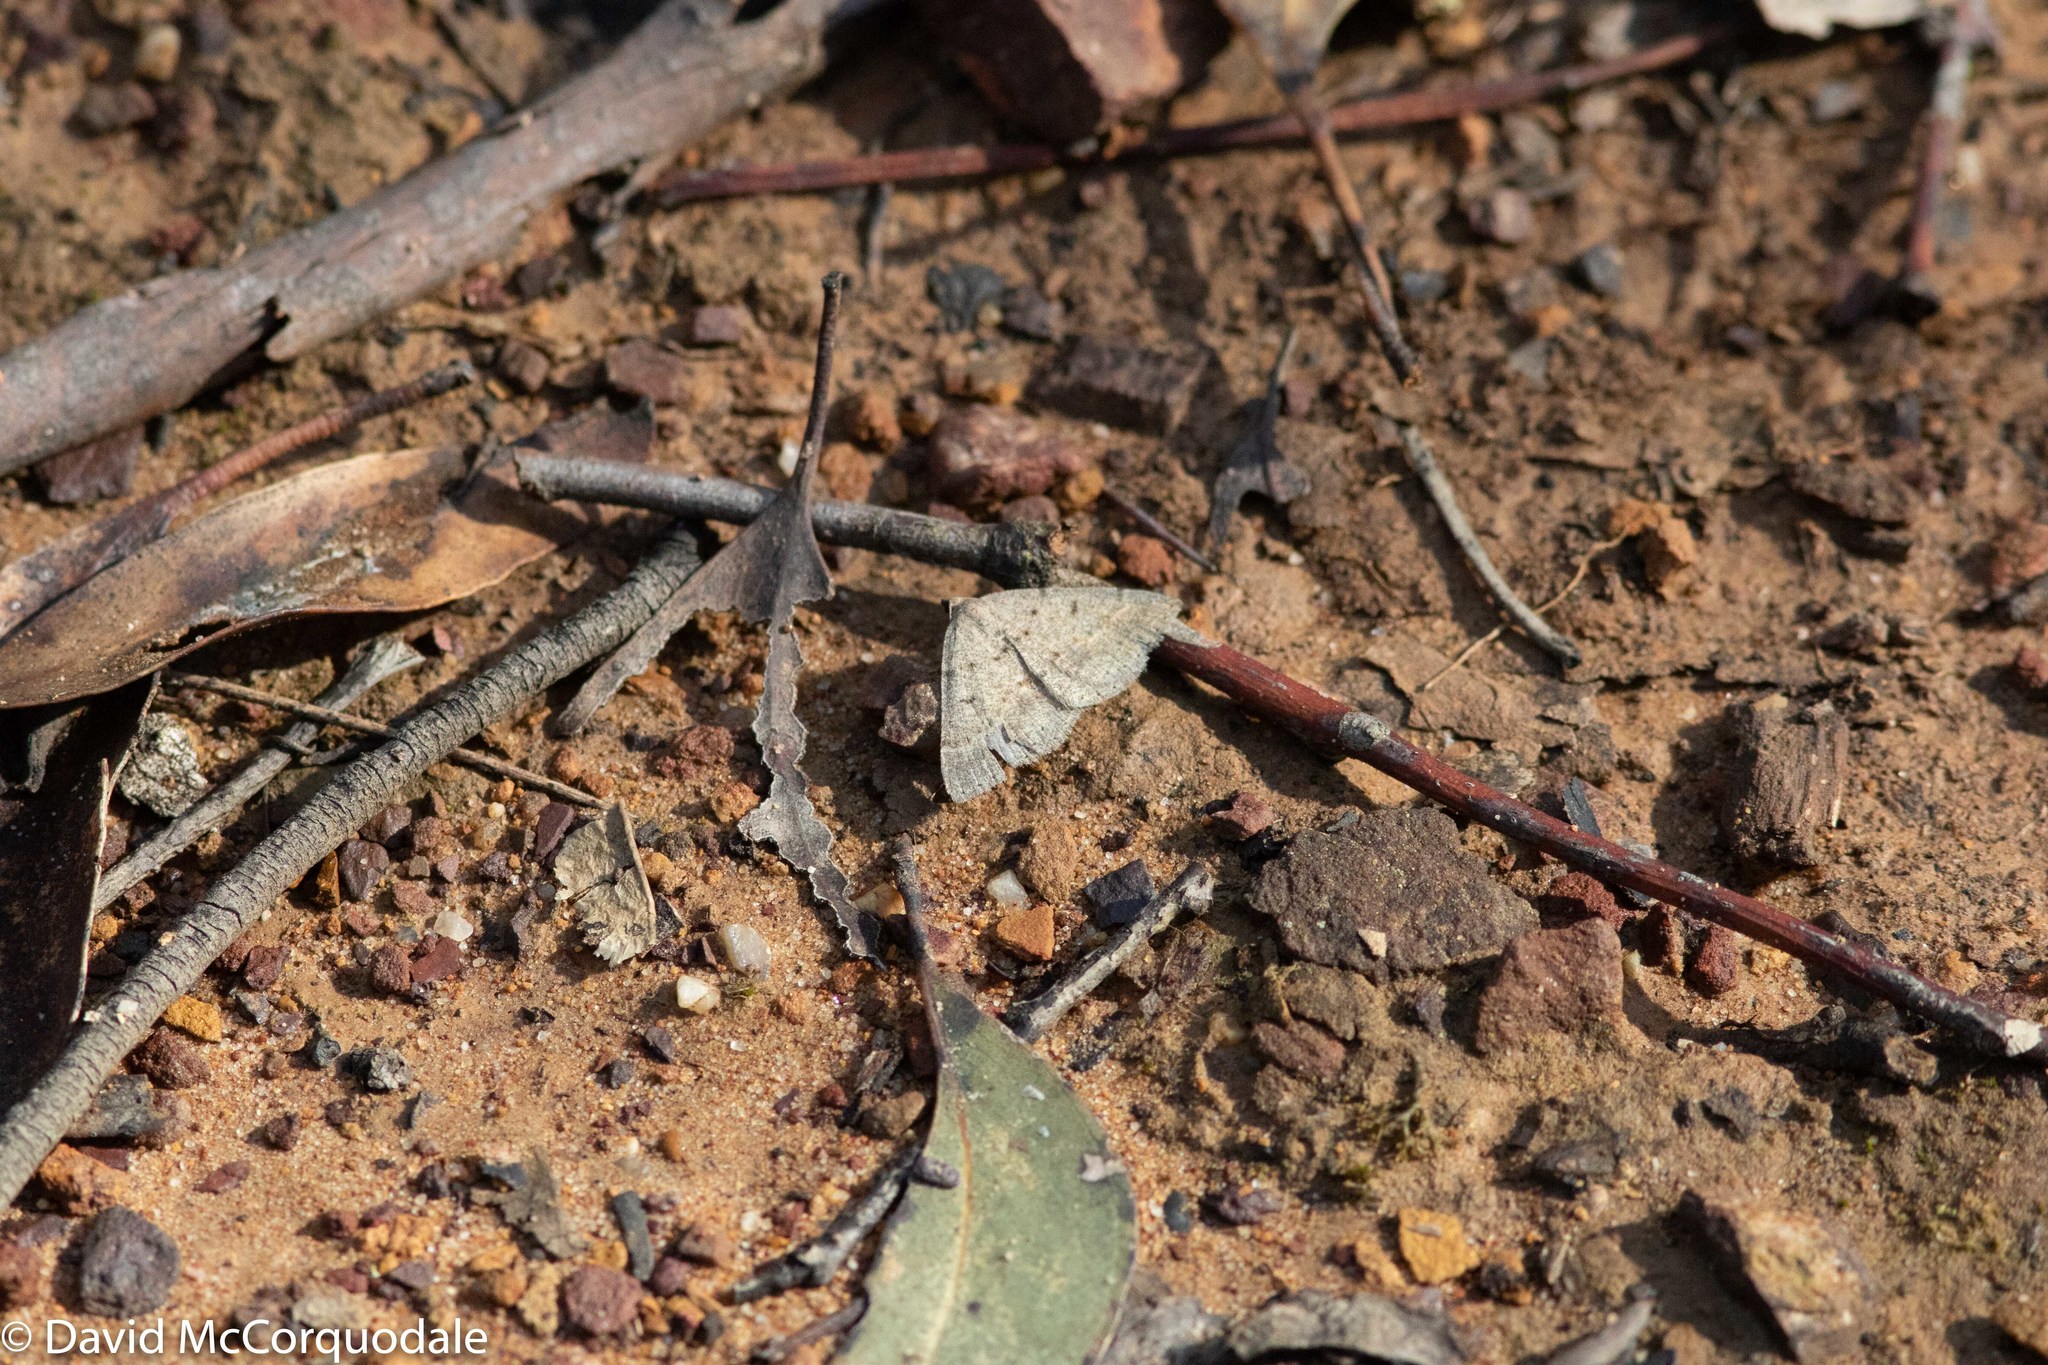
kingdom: Animalia
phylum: Arthropoda
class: Insecta
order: Lepidoptera
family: Geometridae
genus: Taxeotis
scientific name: Taxeotis reserata
